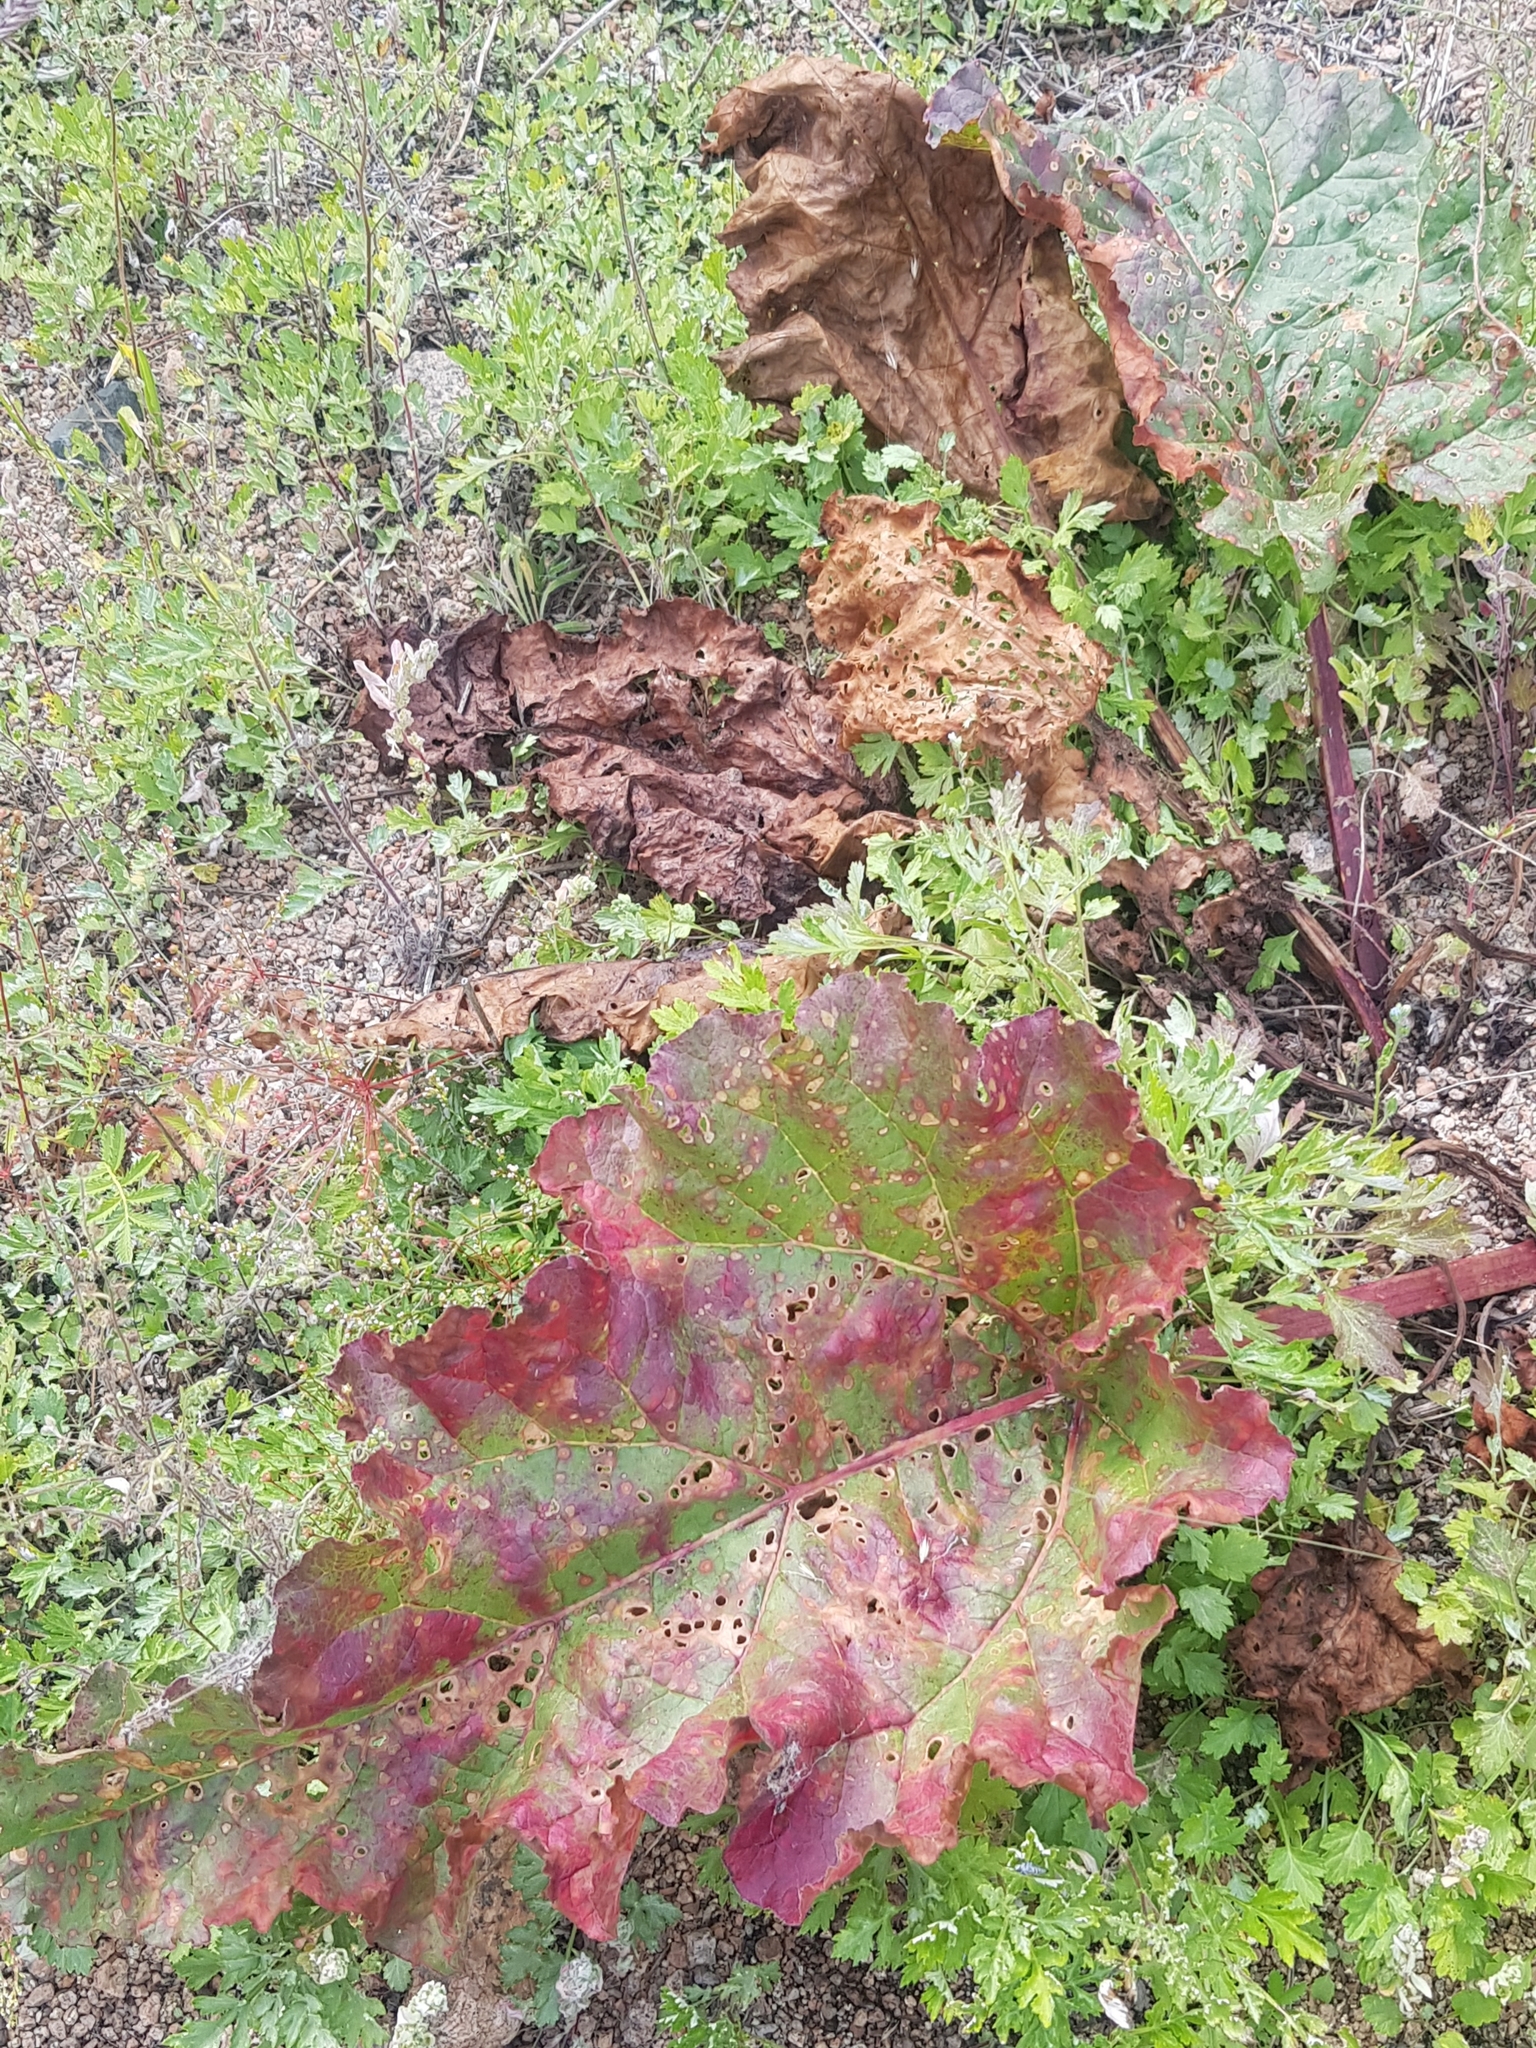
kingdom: Plantae
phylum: Tracheophyta
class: Magnoliopsida
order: Caryophyllales
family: Polygonaceae
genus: Rheum
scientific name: Rheum rhabarbarum
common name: Garden rhubarb
